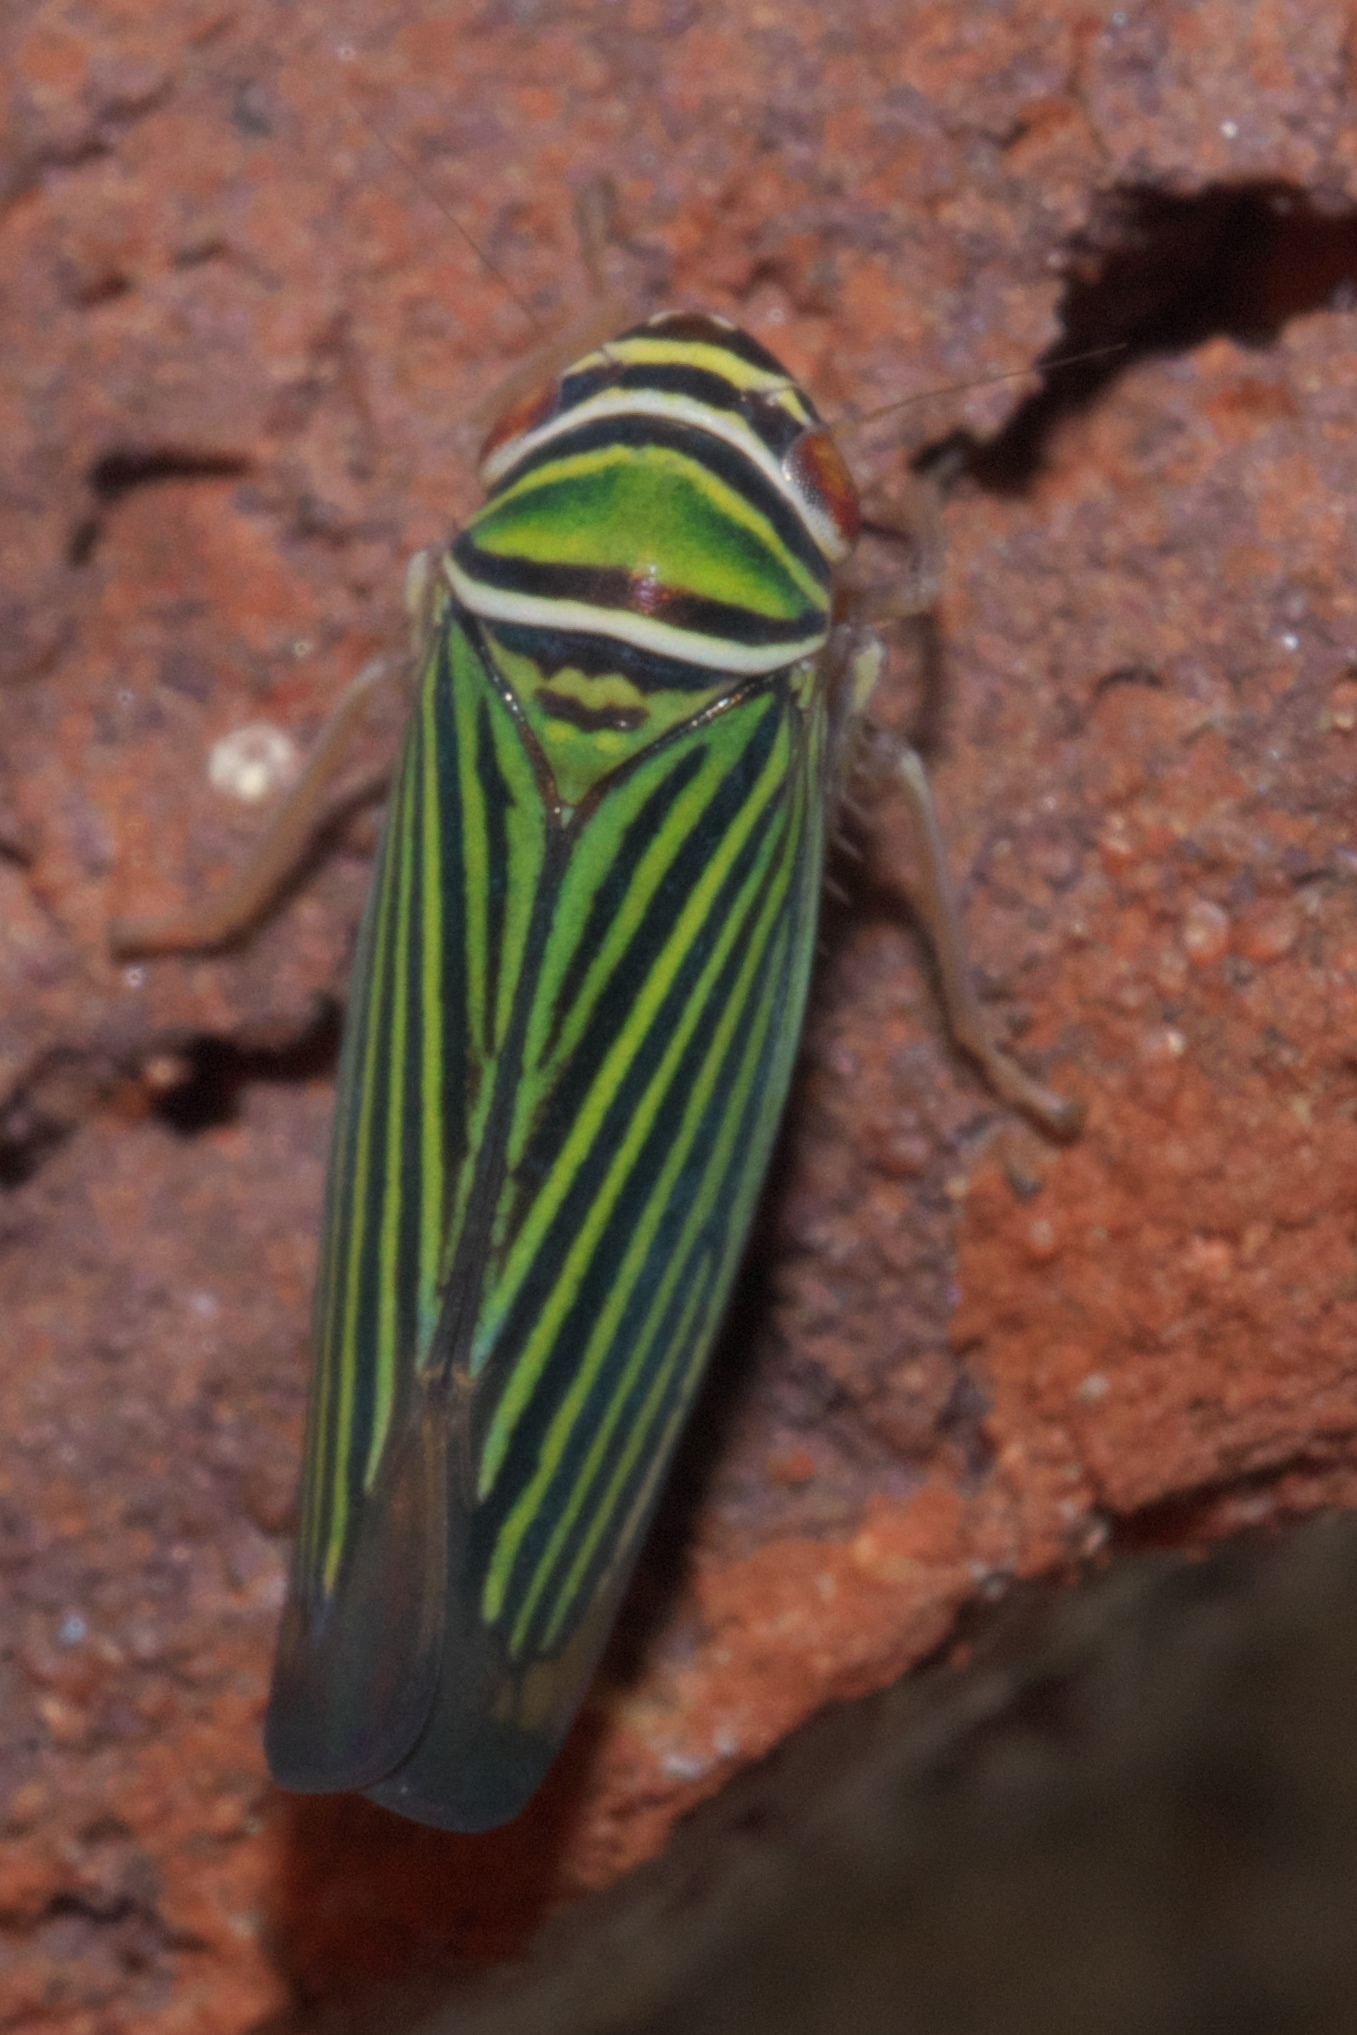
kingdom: Animalia
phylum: Arthropoda
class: Insecta
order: Hemiptera
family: Cicadellidae
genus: Tylozygus
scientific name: Tylozygus bifidus
